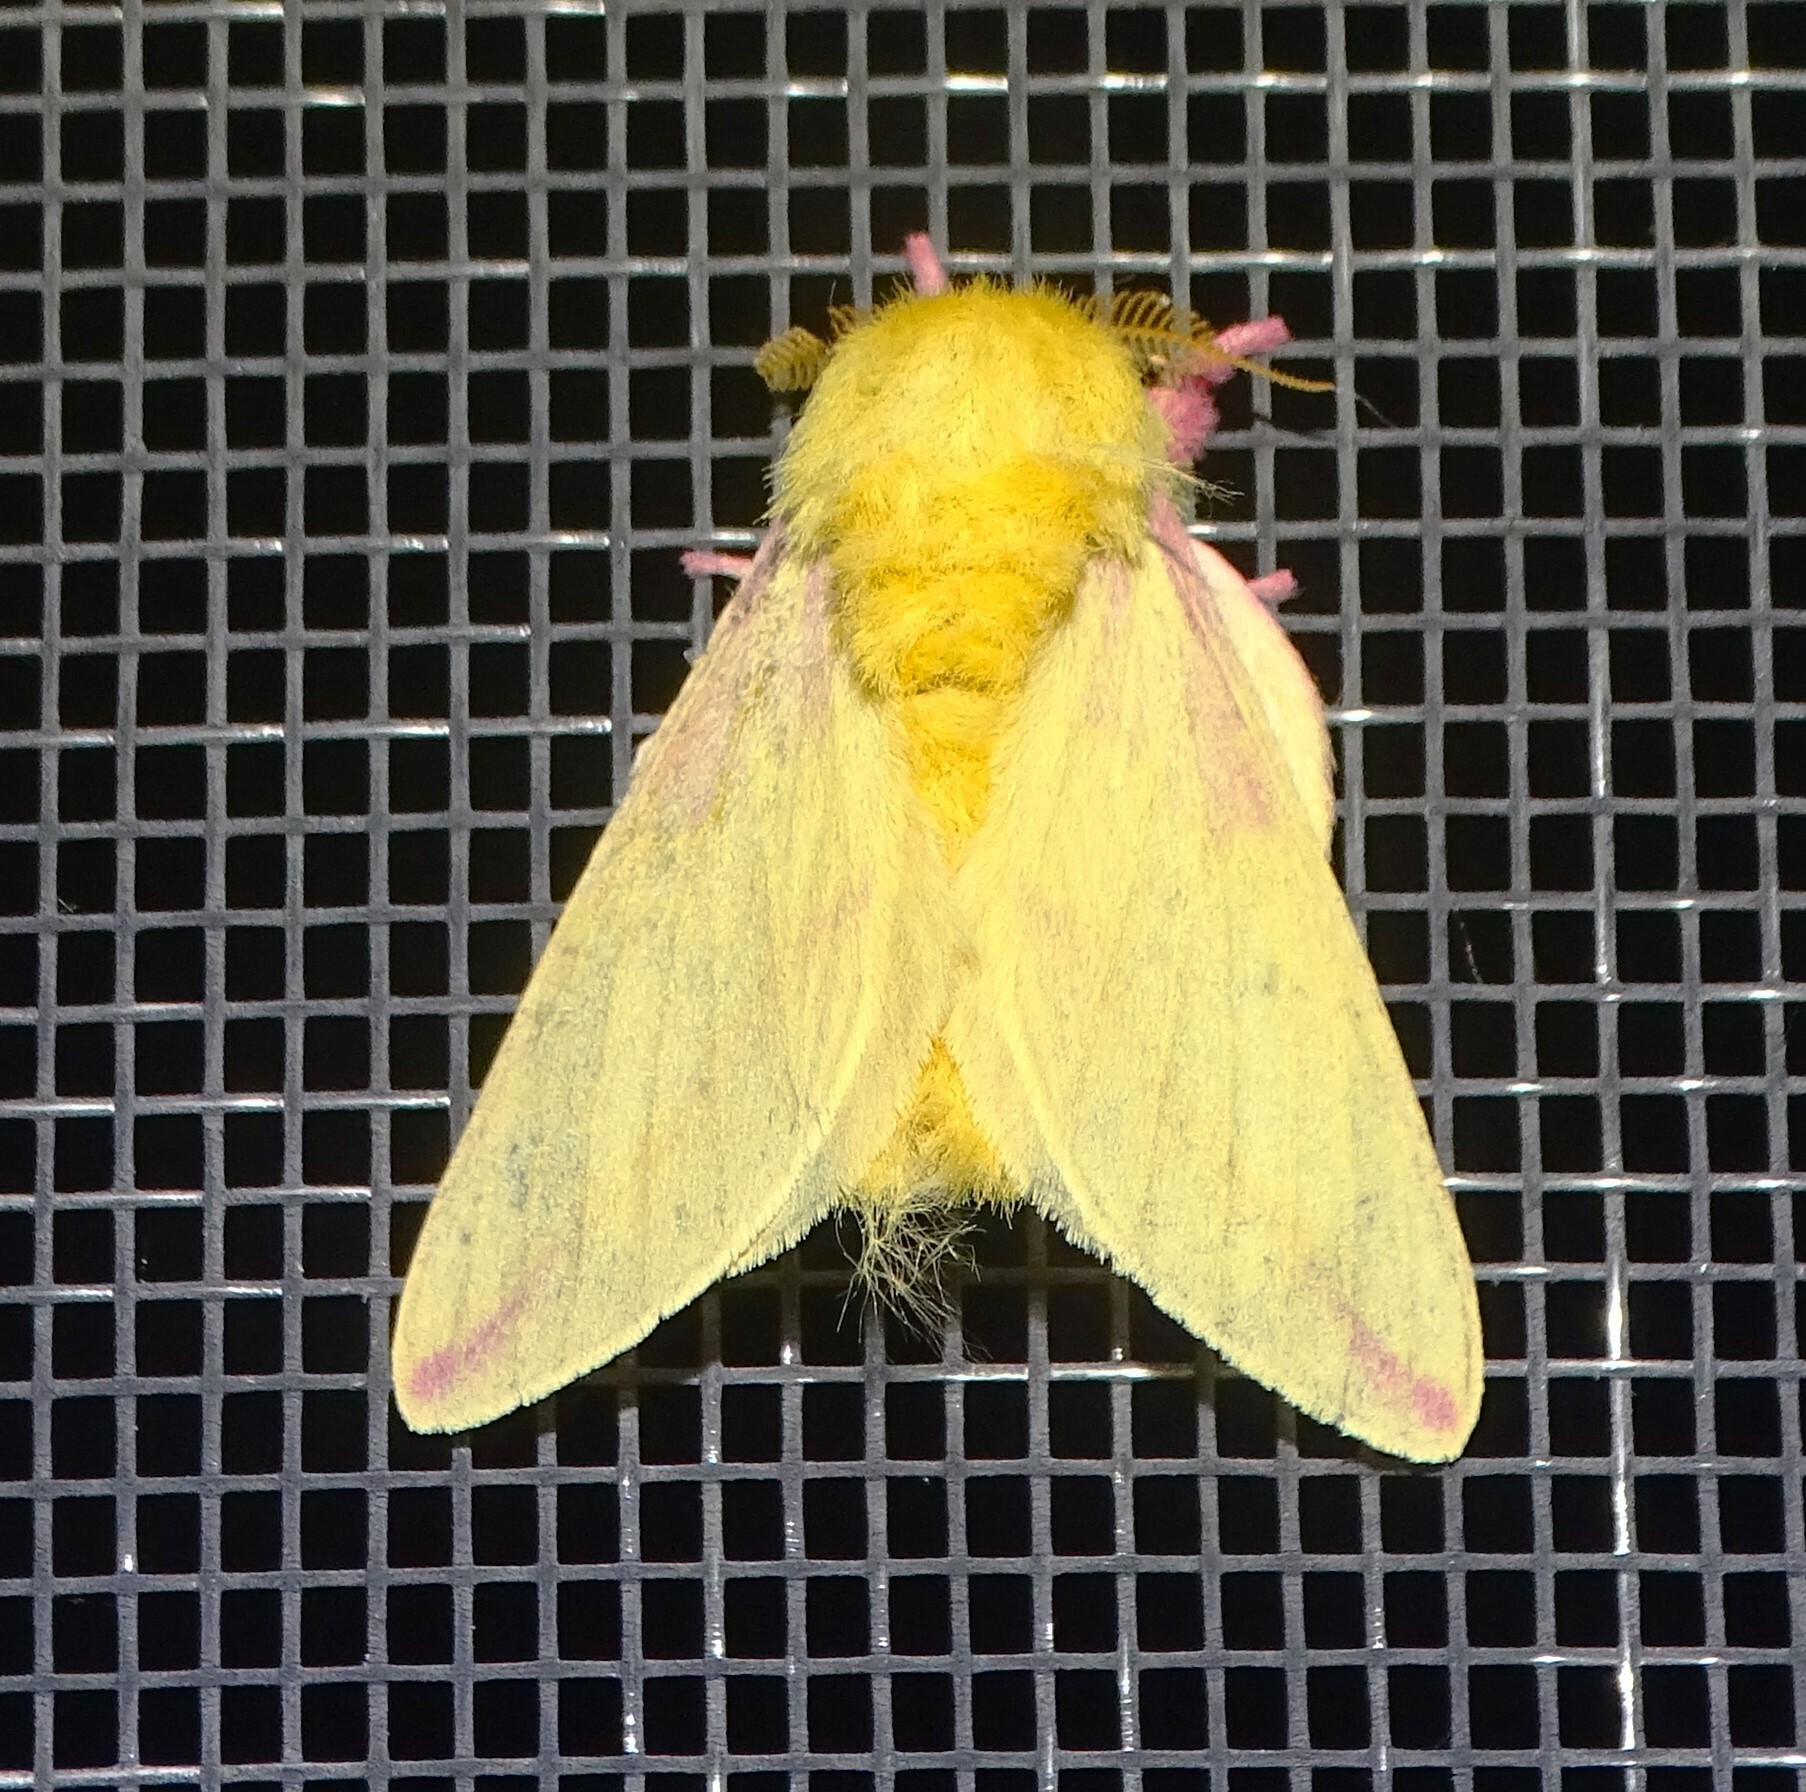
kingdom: Animalia
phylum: Arthropoda
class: Insecta
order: Lepidoptera
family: Saturniidae
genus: Dryocampa
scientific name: Dryocampa rubicunda
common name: Rosy maple moth
